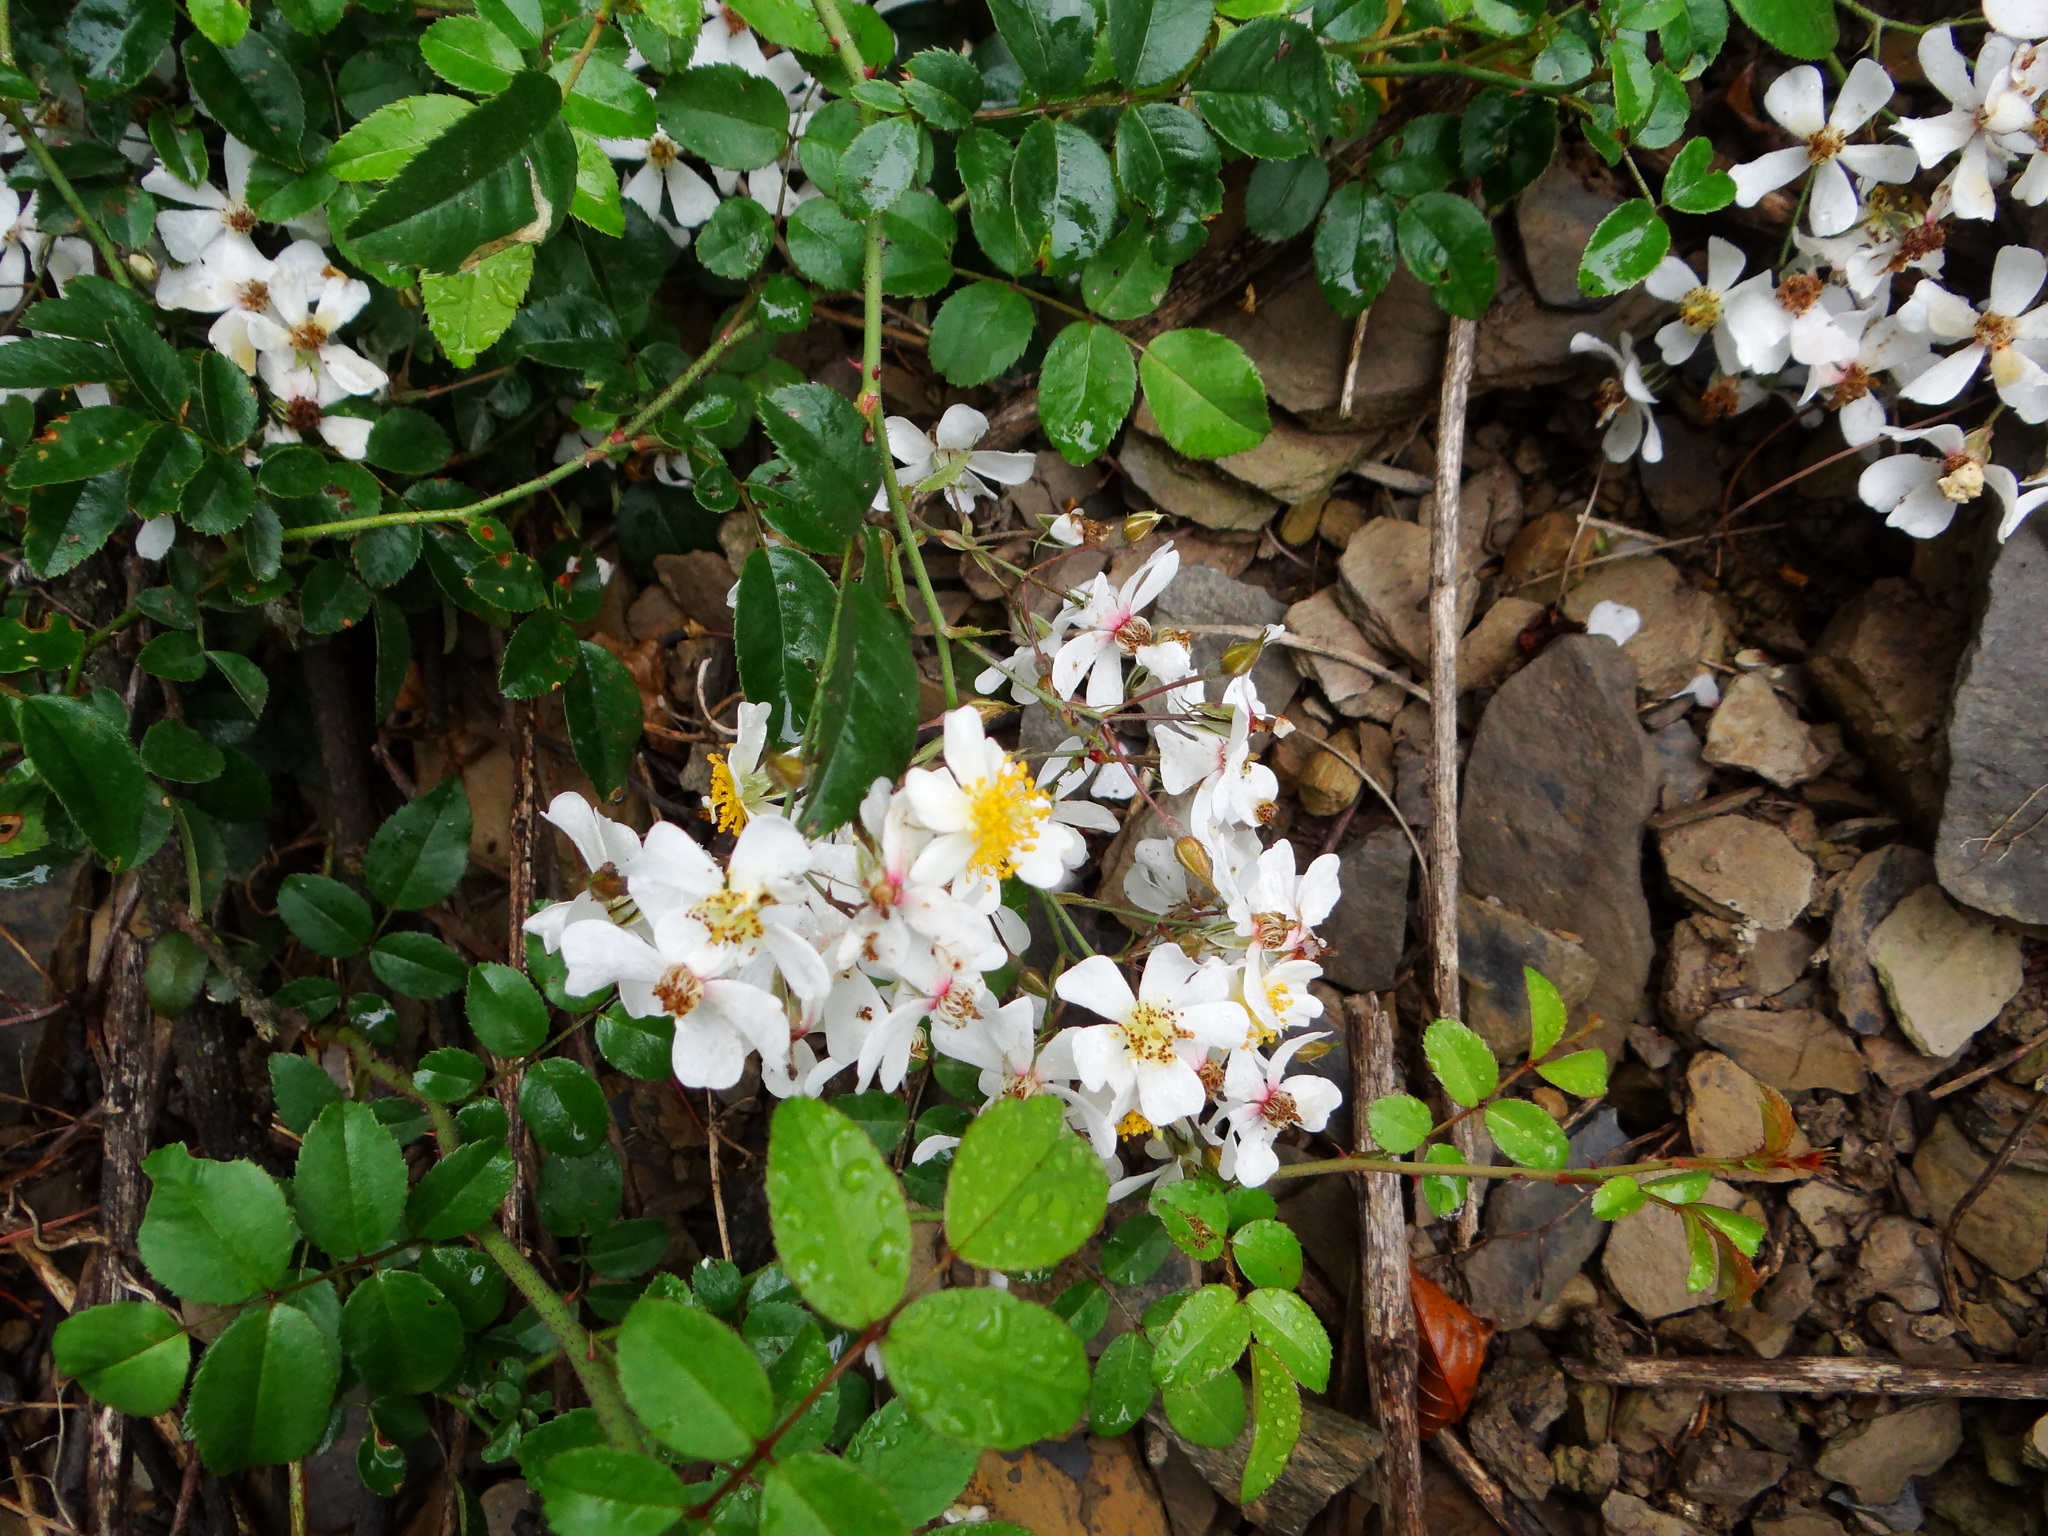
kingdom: Plantae
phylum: Tracheophyta
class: Magnoliopsida
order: Rosales
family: Rosaceae
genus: Rosa
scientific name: Rosa transmorrisonensis
